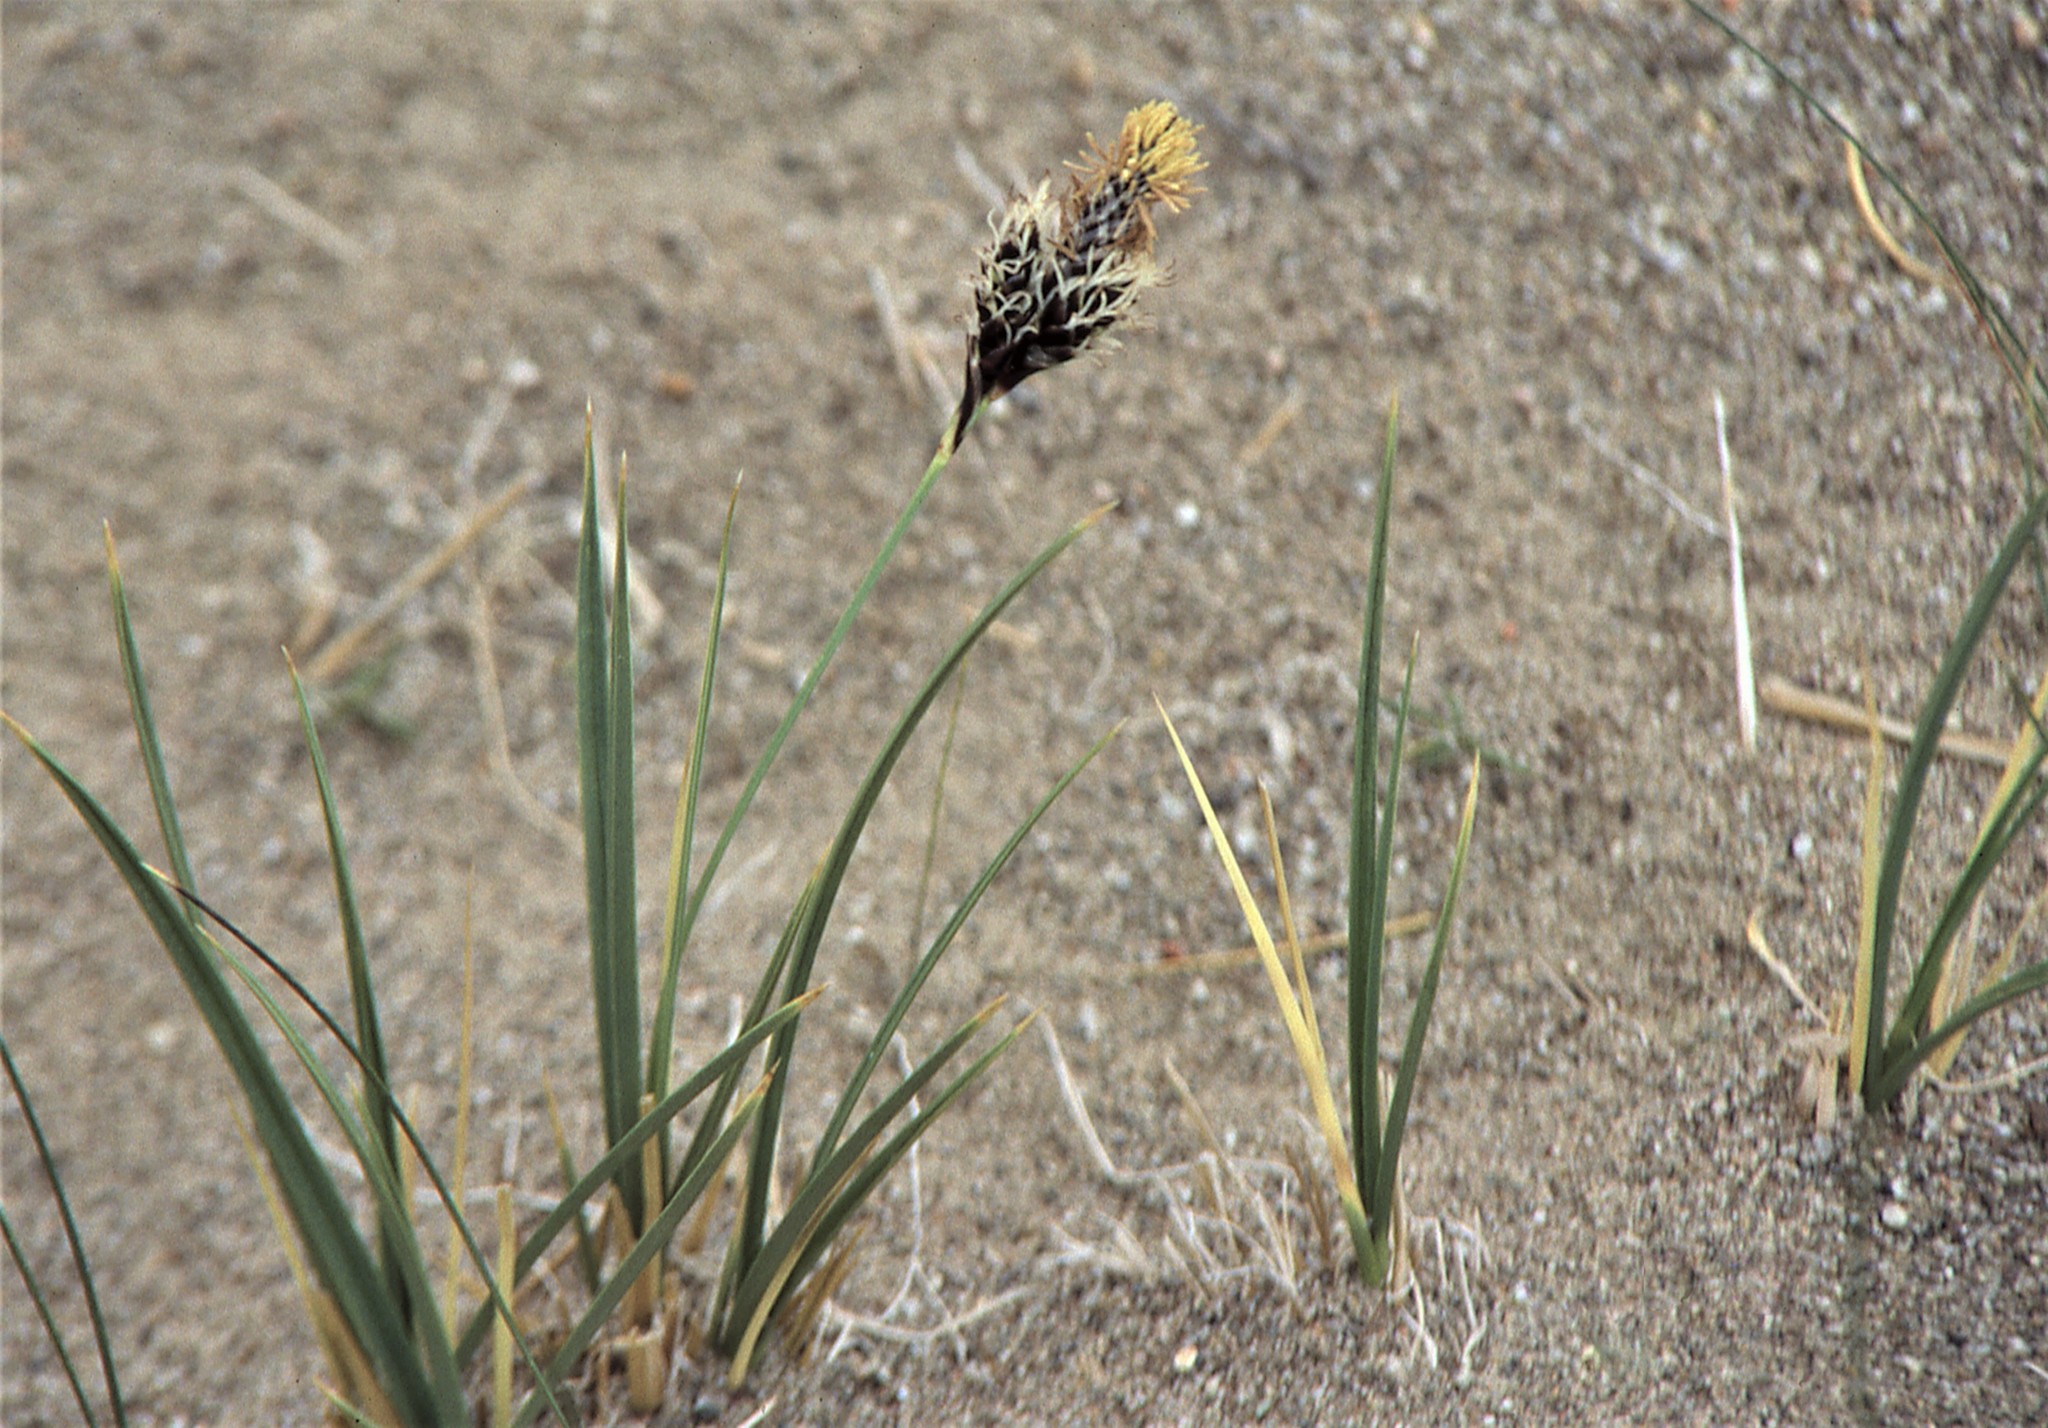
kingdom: Plantae
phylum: Tracheophyta
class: Liliopsida
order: Poales
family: Cyperaceae
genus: Carex
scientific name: Carex moorcroftii
